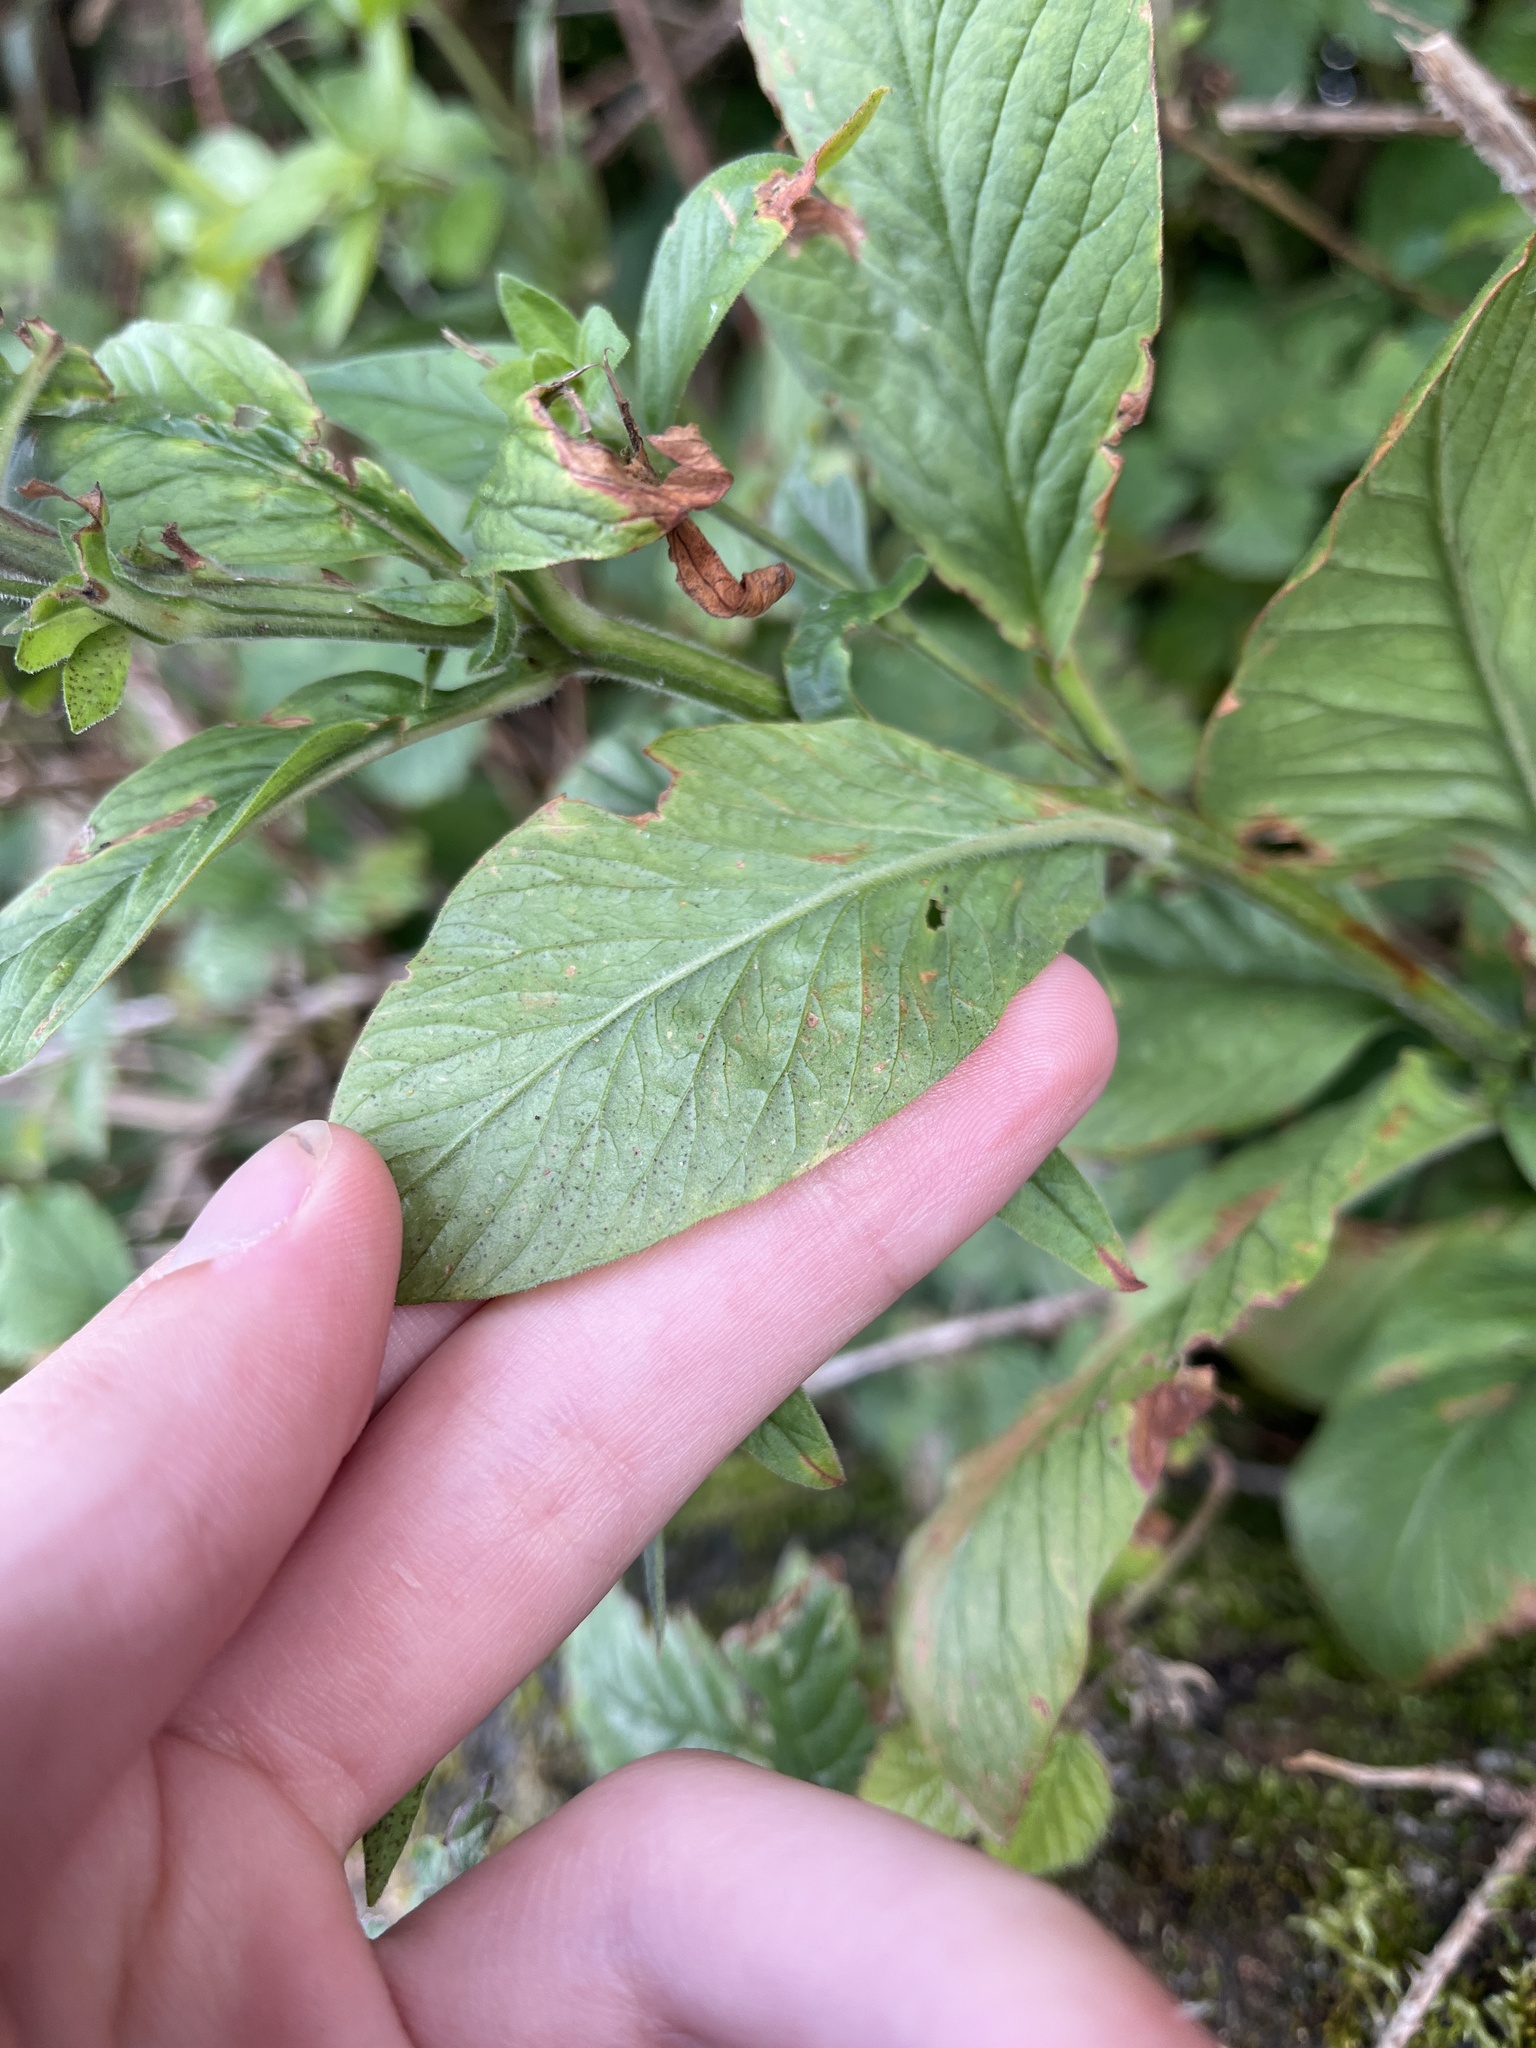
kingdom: Plantae
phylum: Tracheophyta
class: Magnoliopsida
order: Ericales
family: Primulaceae
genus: Lysimachia
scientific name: Lysimachia punctata
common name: Dotted loosestrife
